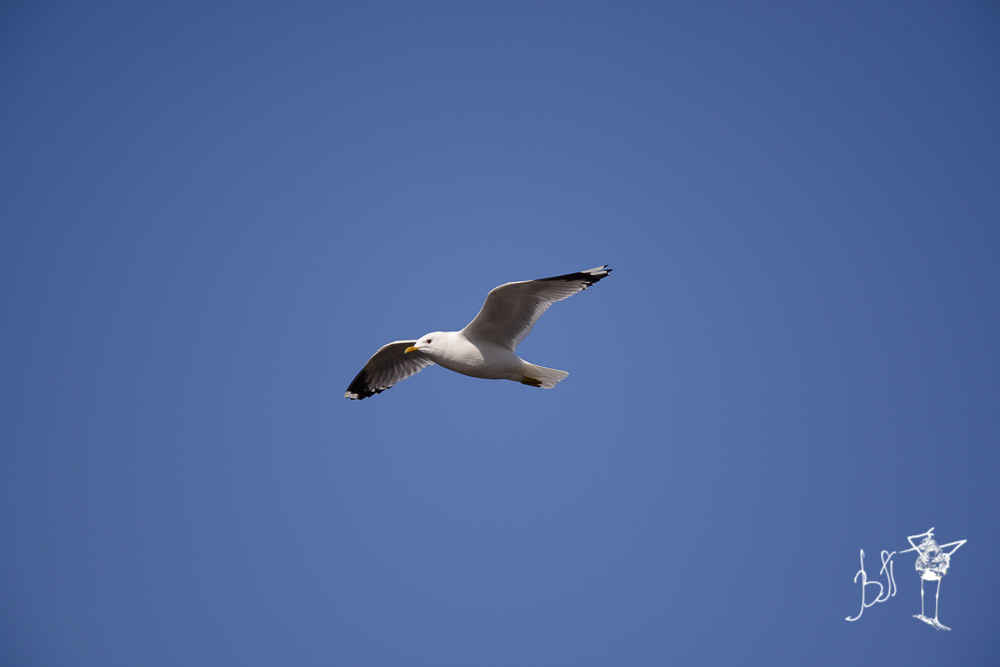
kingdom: Animalia
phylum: Chordata
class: Aves
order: Charadriiformes
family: Laridae
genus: Larus
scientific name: Larus canus
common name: Mew gull
